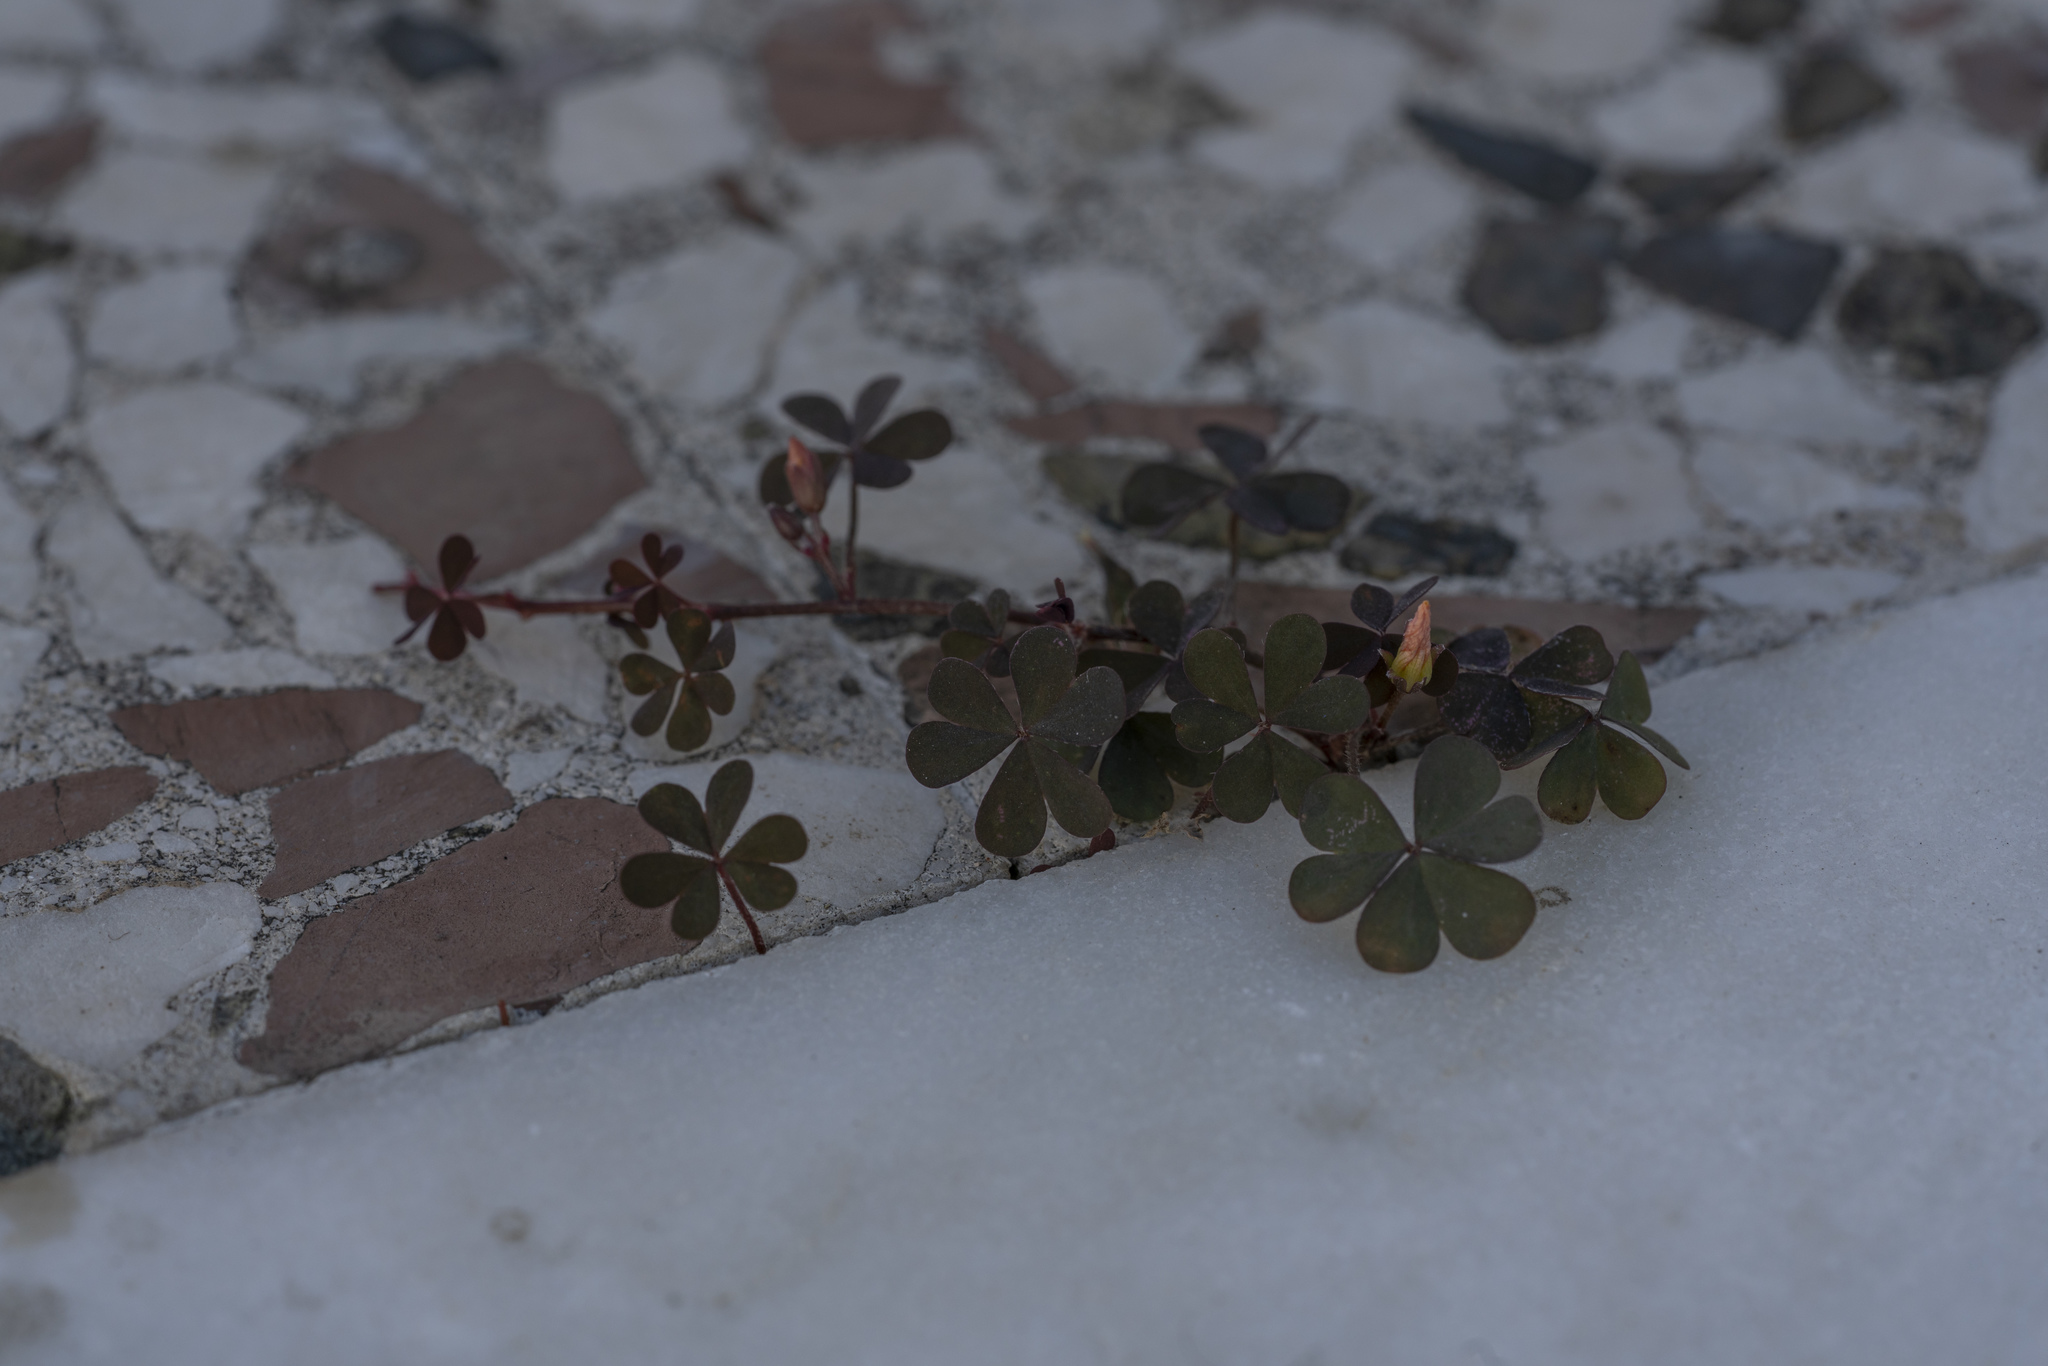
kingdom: Plantae
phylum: Tracheophyta
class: Magnoliopsida
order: Oxalidales
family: Oxalidaceae
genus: Oxalis
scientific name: Oxalis corniculata
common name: Procumbent yellow-sorrel
